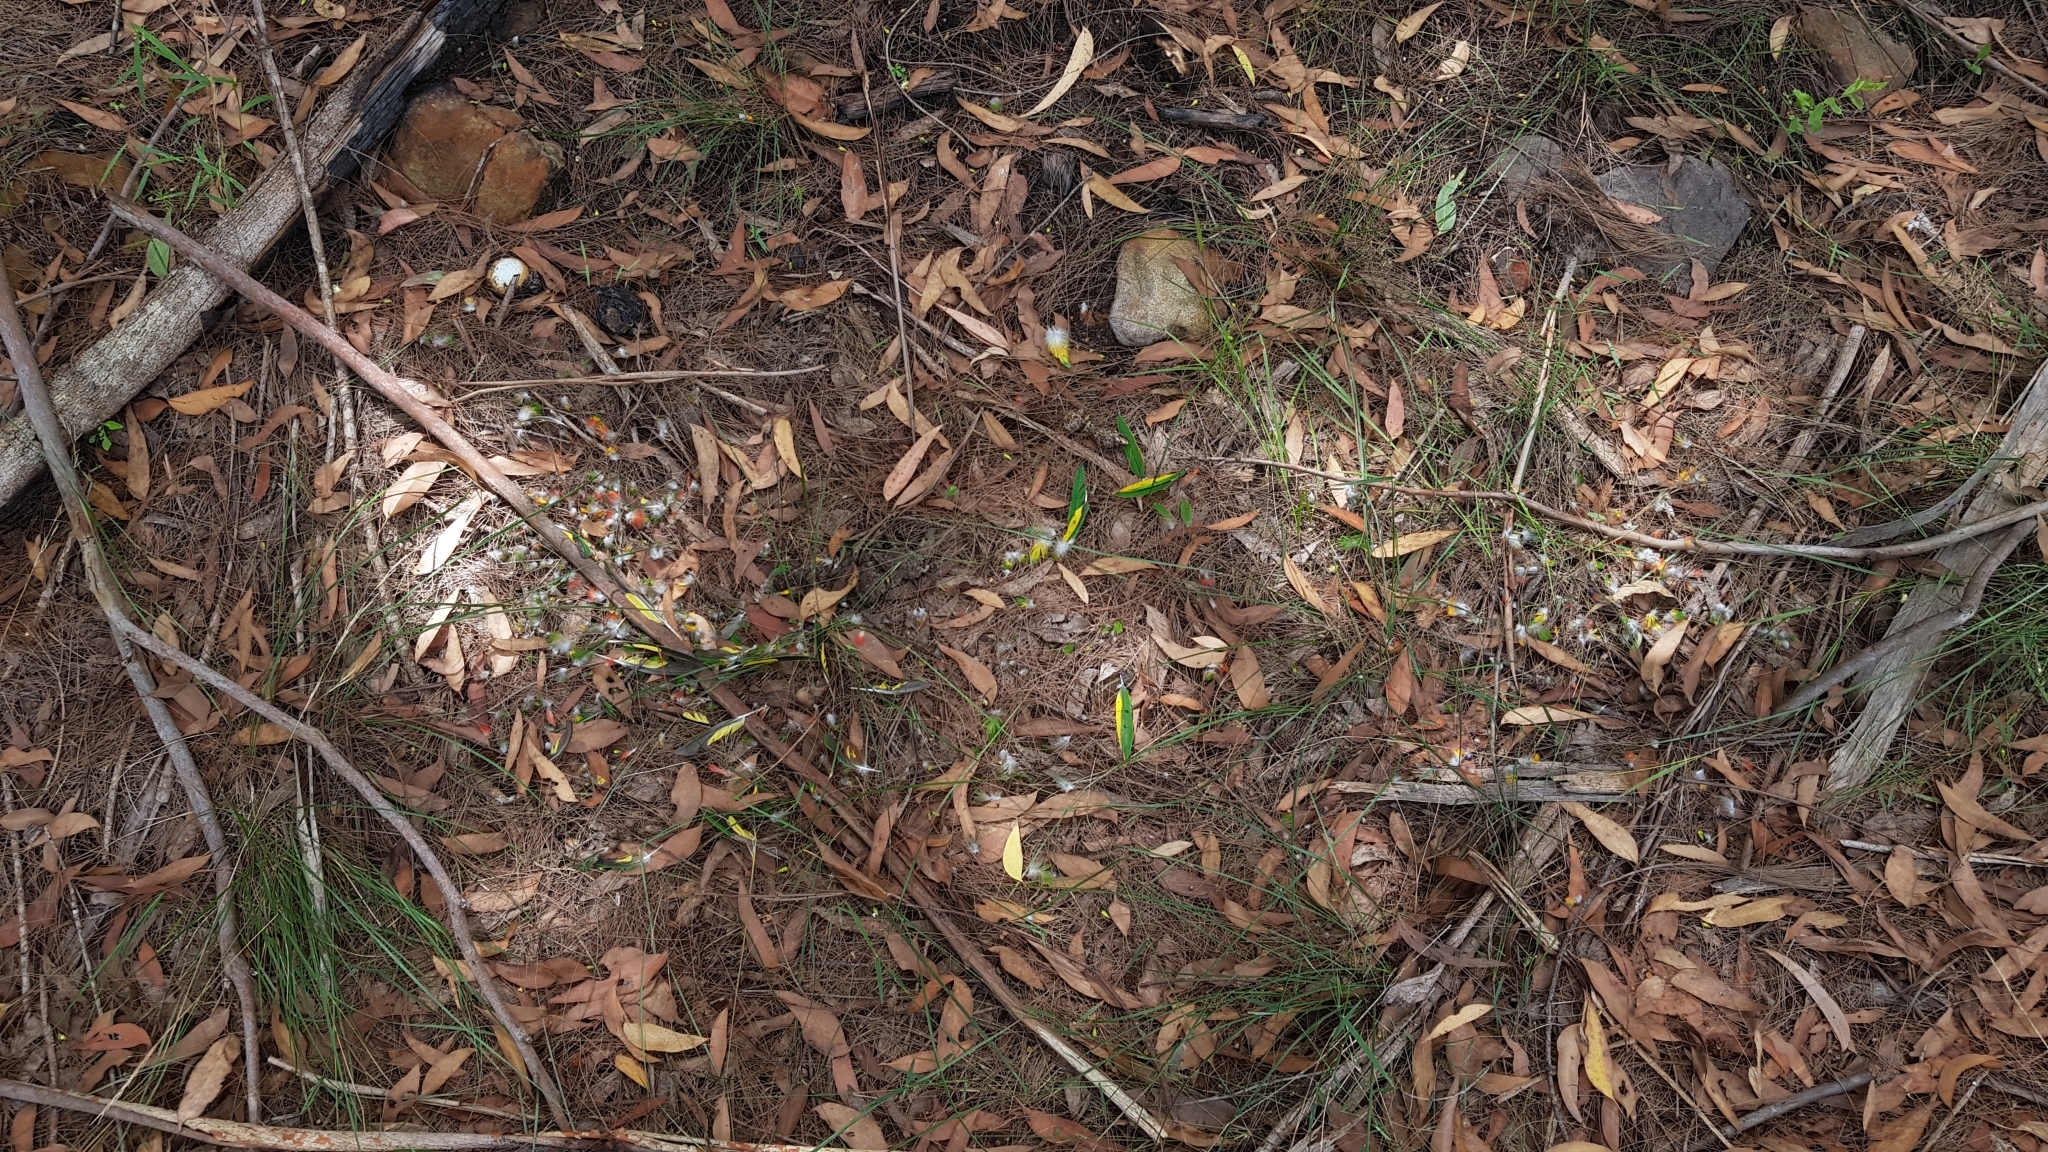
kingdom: Animalia
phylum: Chordata
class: Aves
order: Psittaciformes
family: Psittacidae
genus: Trichoglossus
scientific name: Trichoglossus haematodus
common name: Coconut lorikeet
